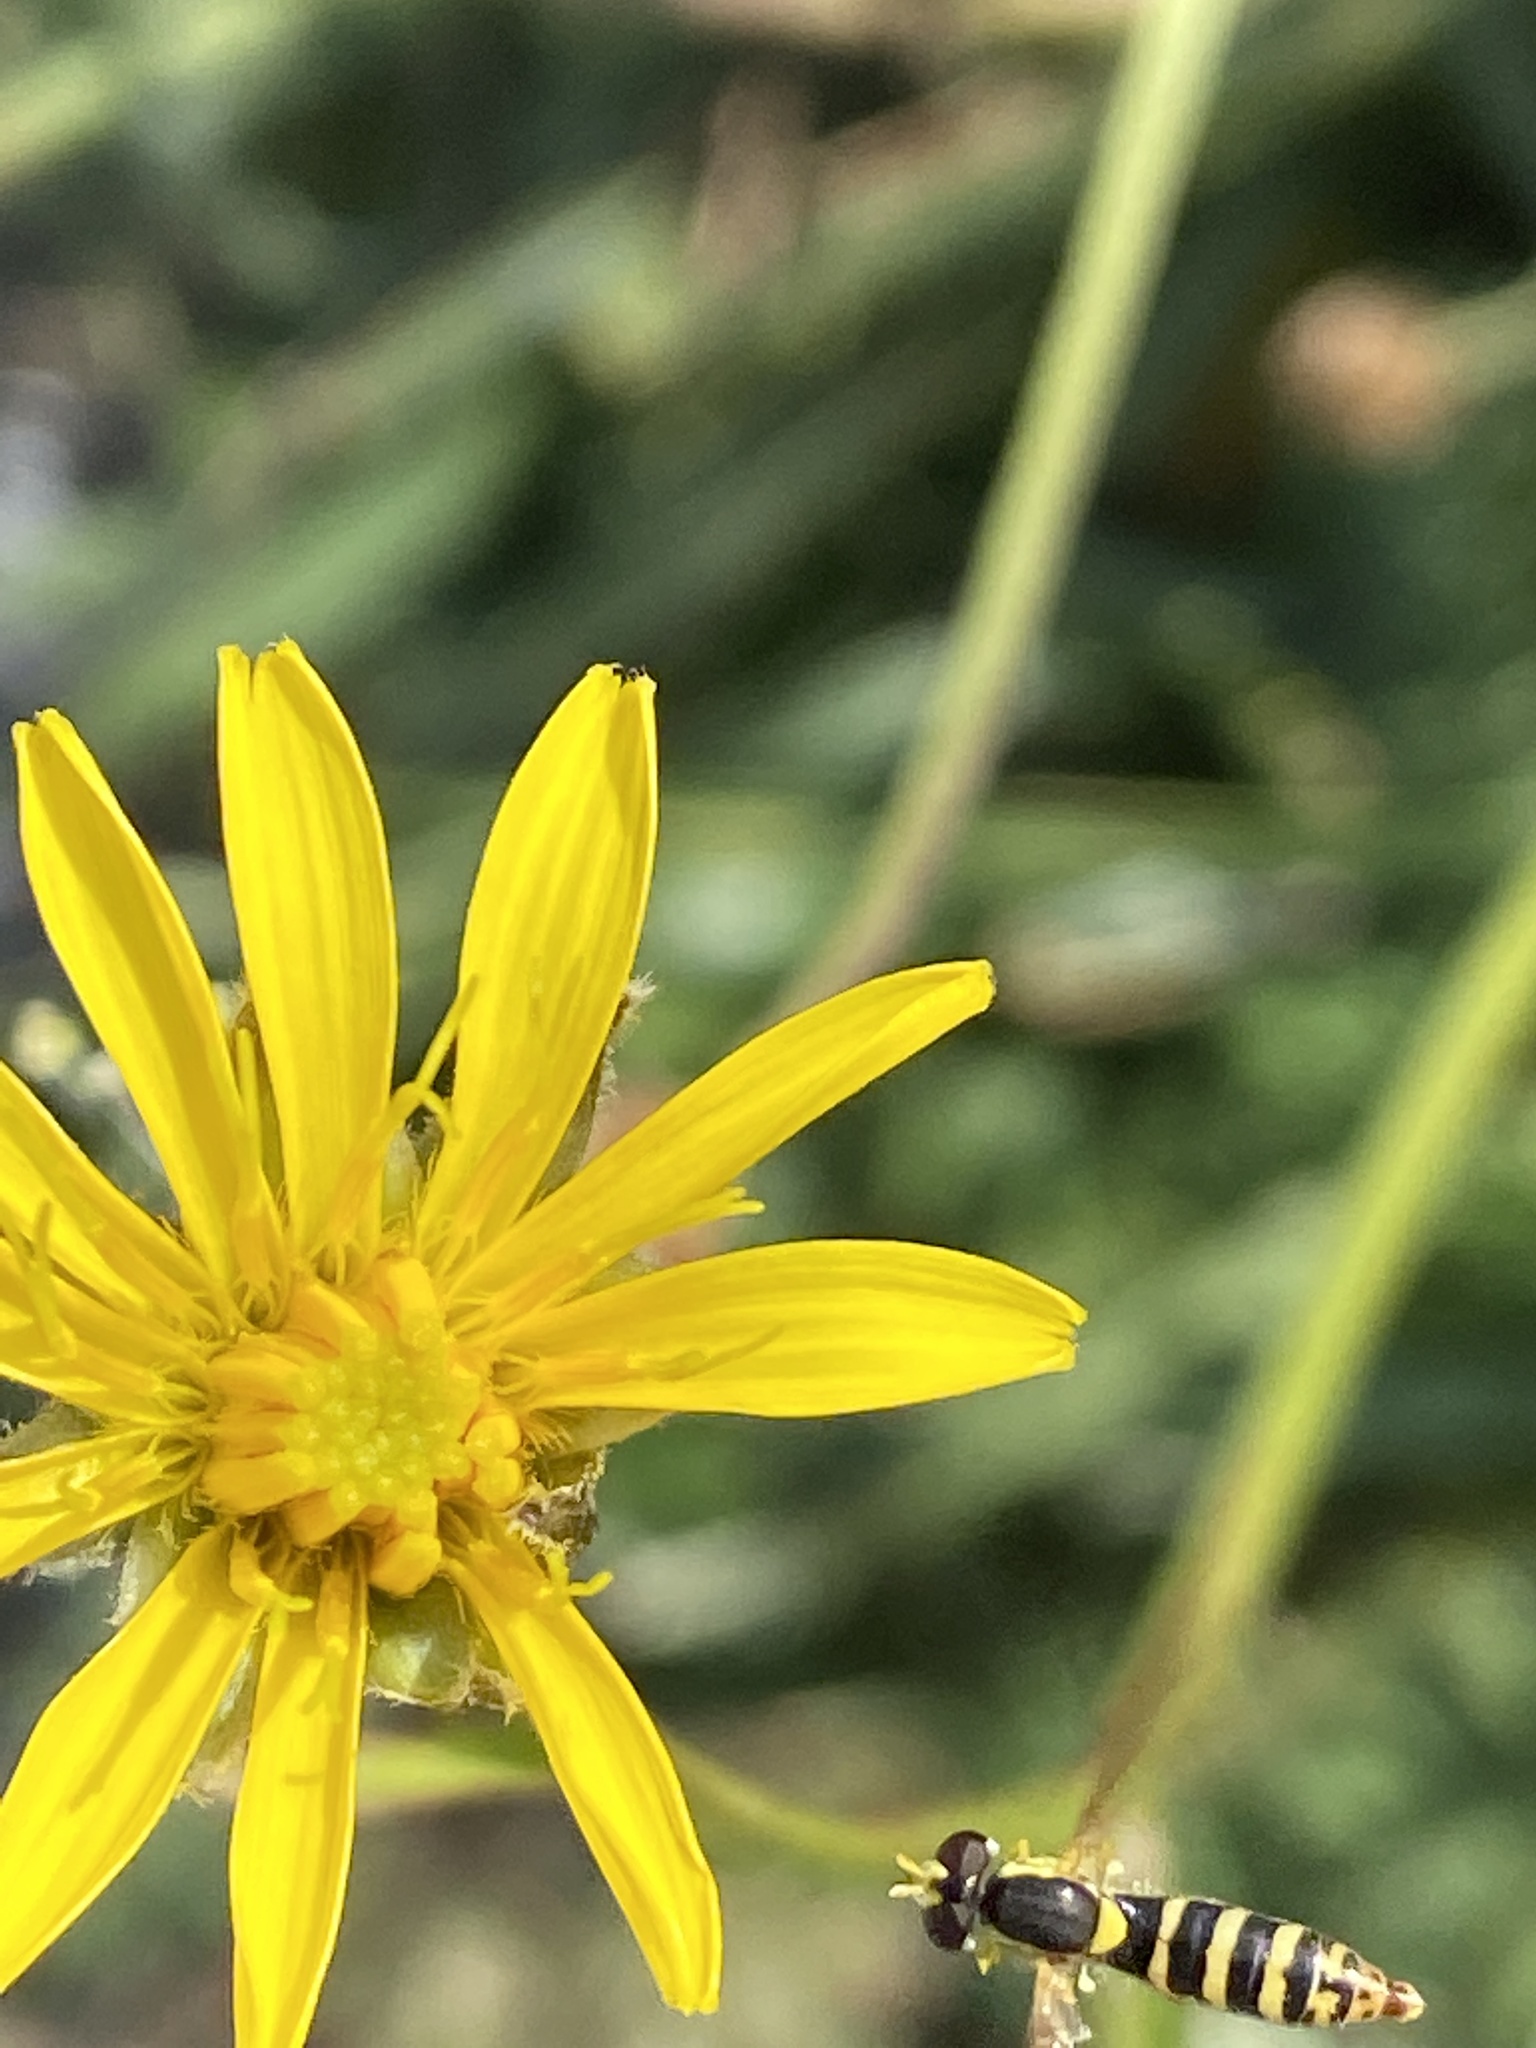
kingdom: Animalia
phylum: Arthropoda
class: Insecta
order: Diptera
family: Syrphidae
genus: Sphaerophoria
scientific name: Sphaerophoria
